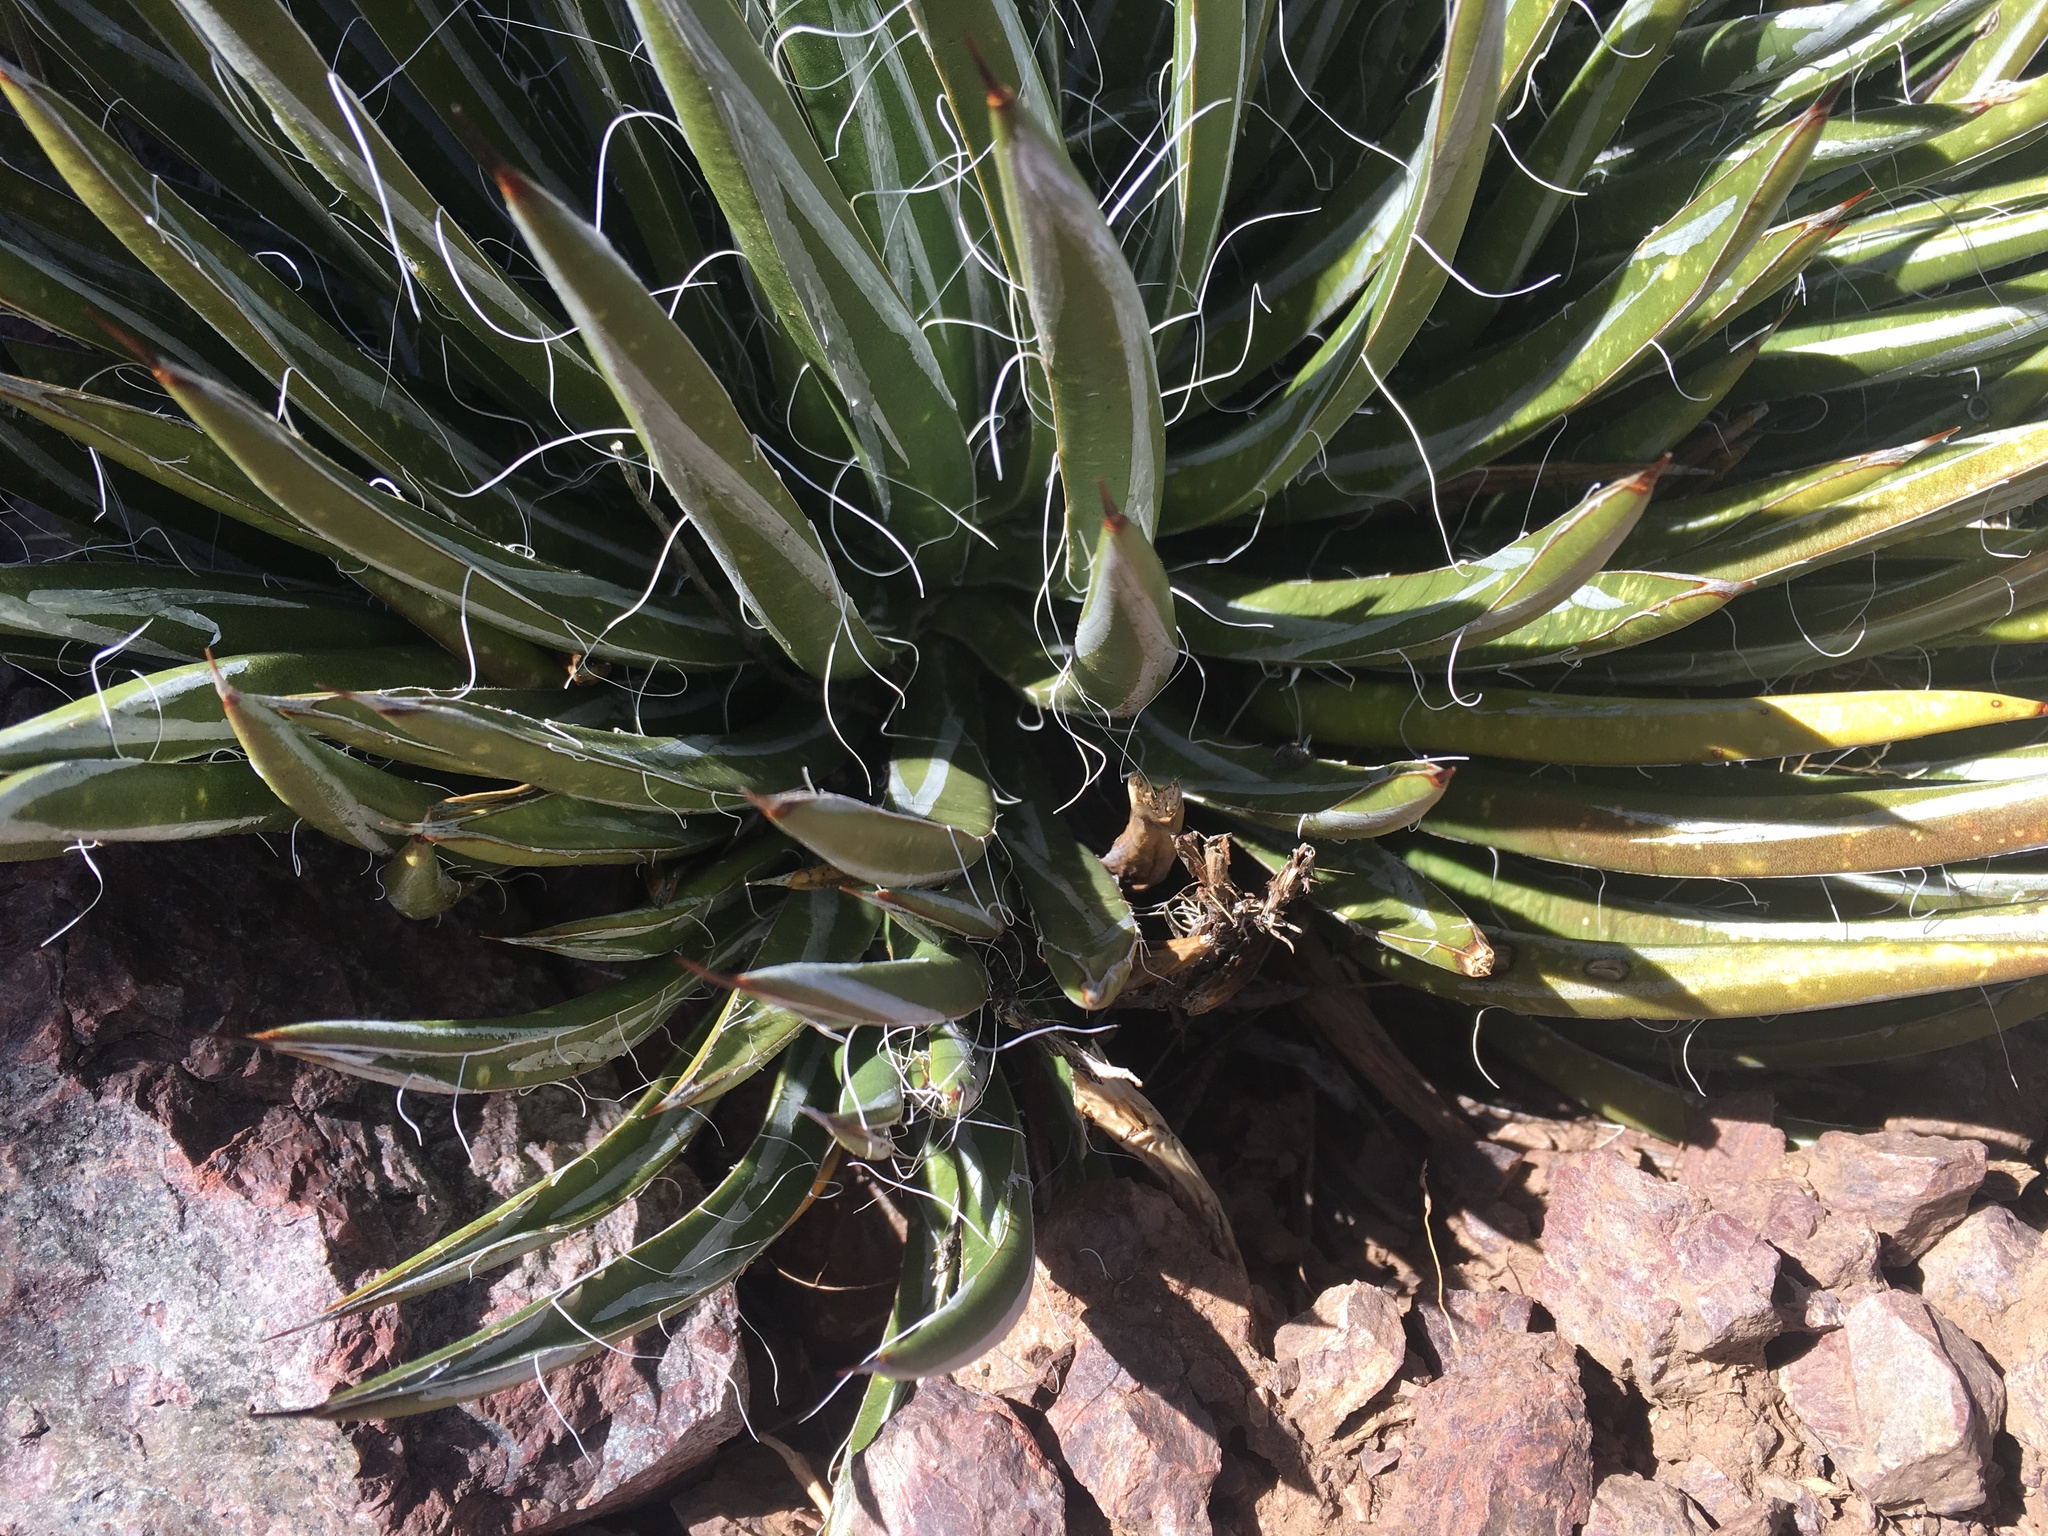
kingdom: Plantae
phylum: Tracheophyta
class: Liliopsida
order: Asparagales
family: Asparagaceae
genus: Agave
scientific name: Agave toumeyana
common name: Toumey's agave
